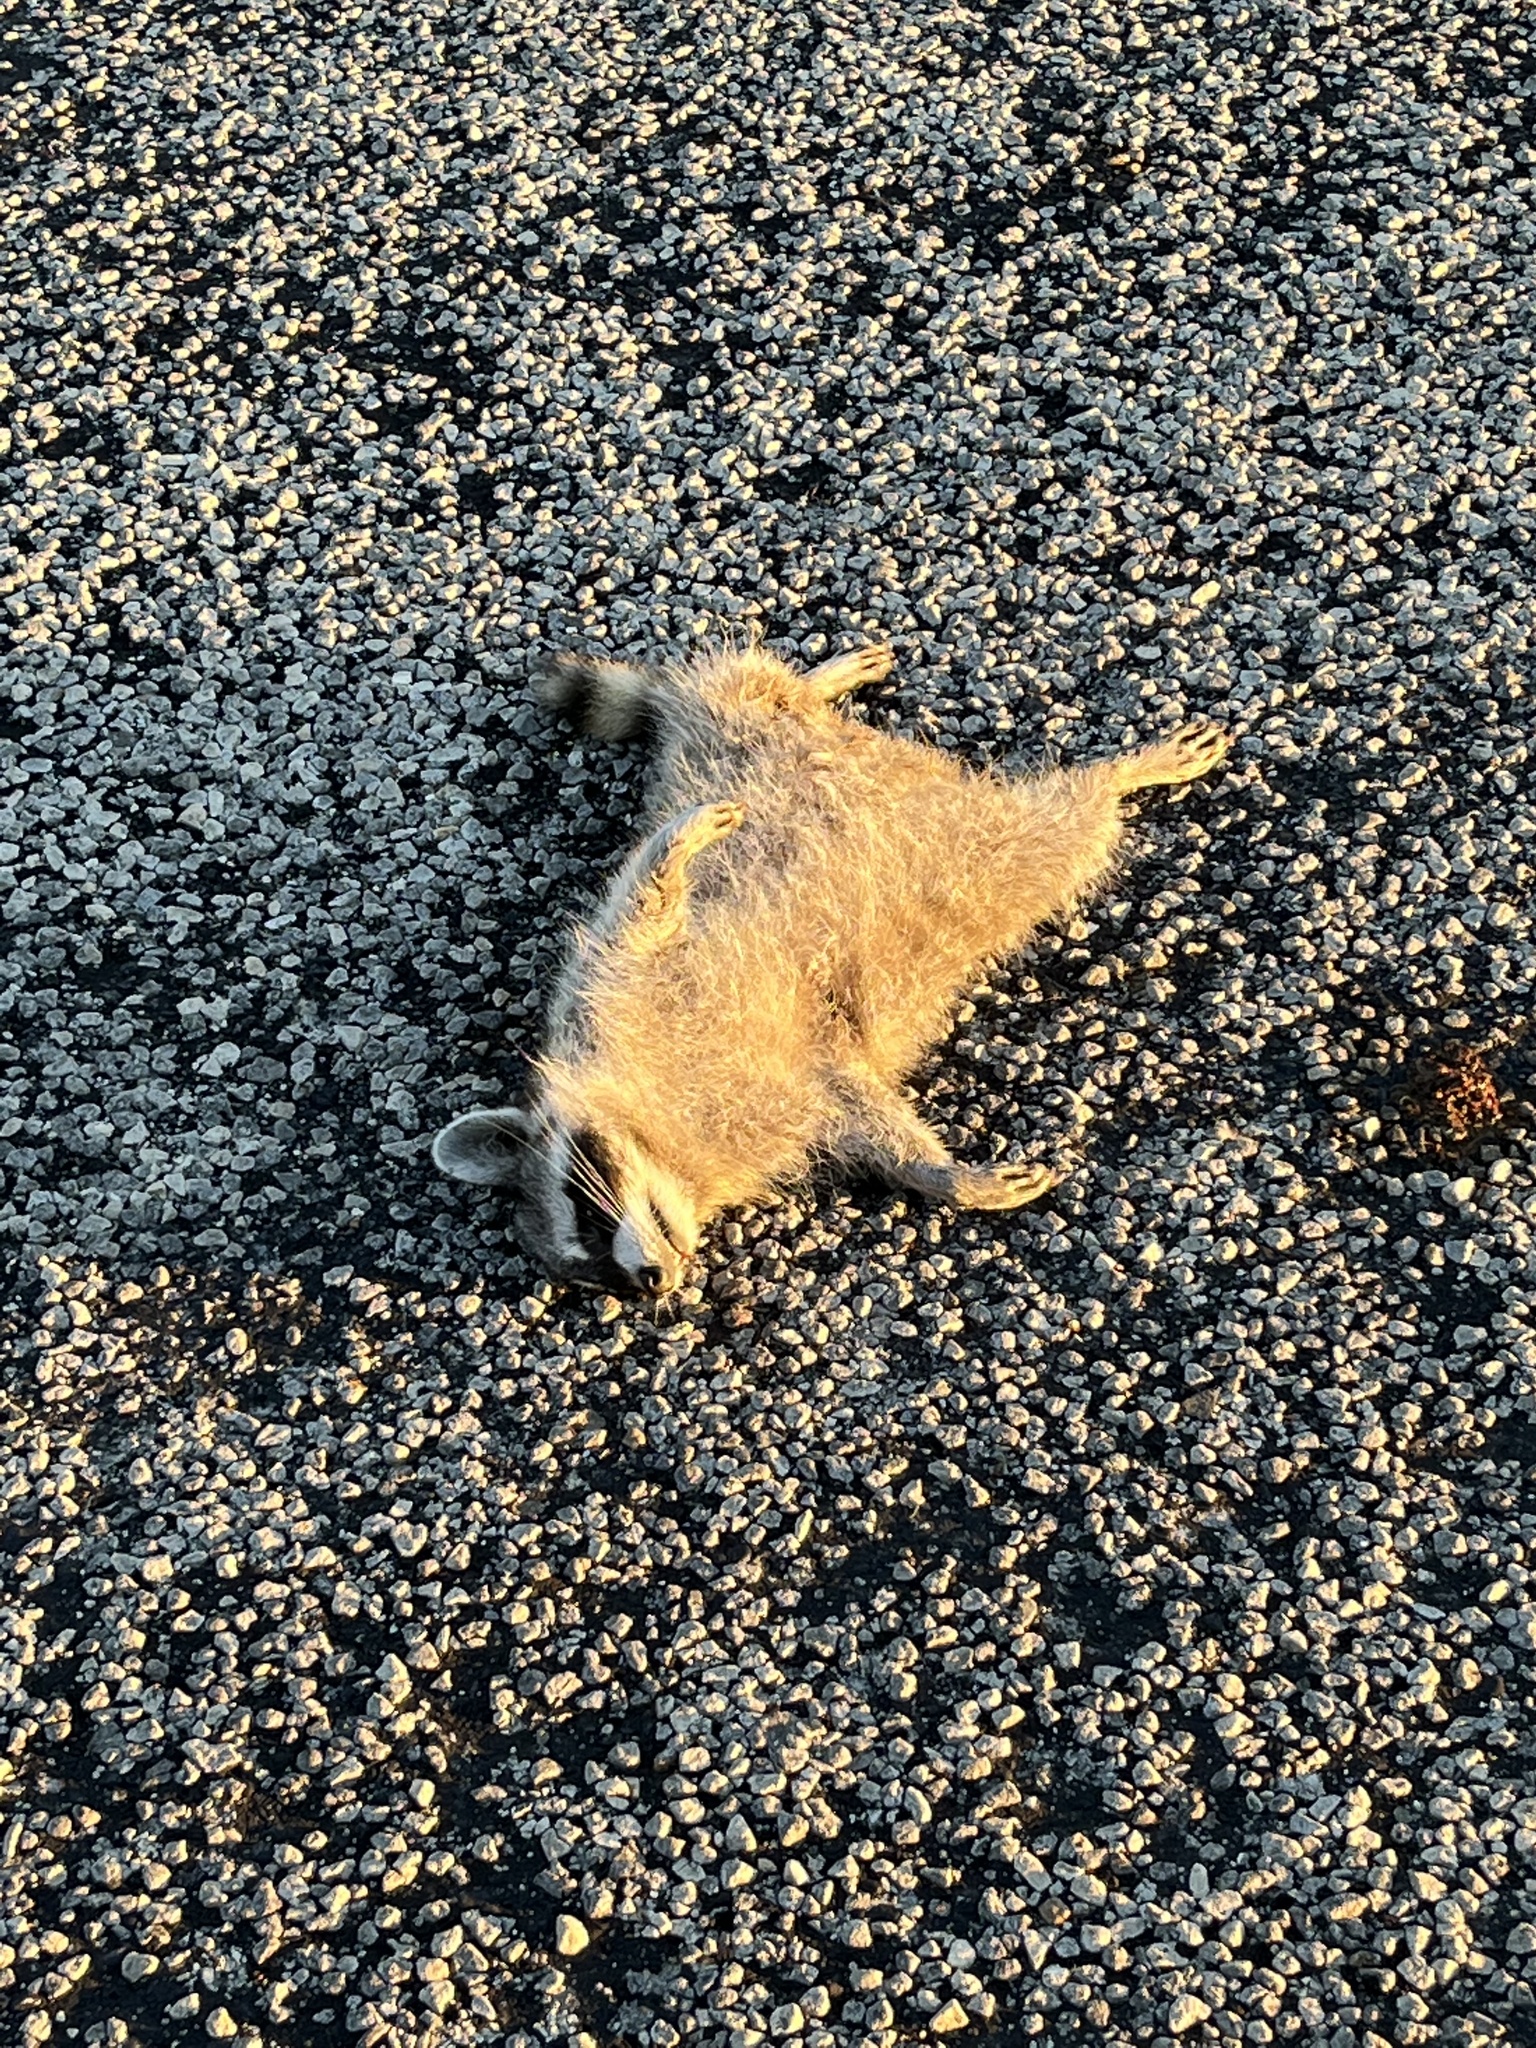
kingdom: Animalia
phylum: Chordata
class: Mammalia
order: Carnivora
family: Procyonidae
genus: Procyon
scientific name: Procyon lotor
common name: Raccoon
